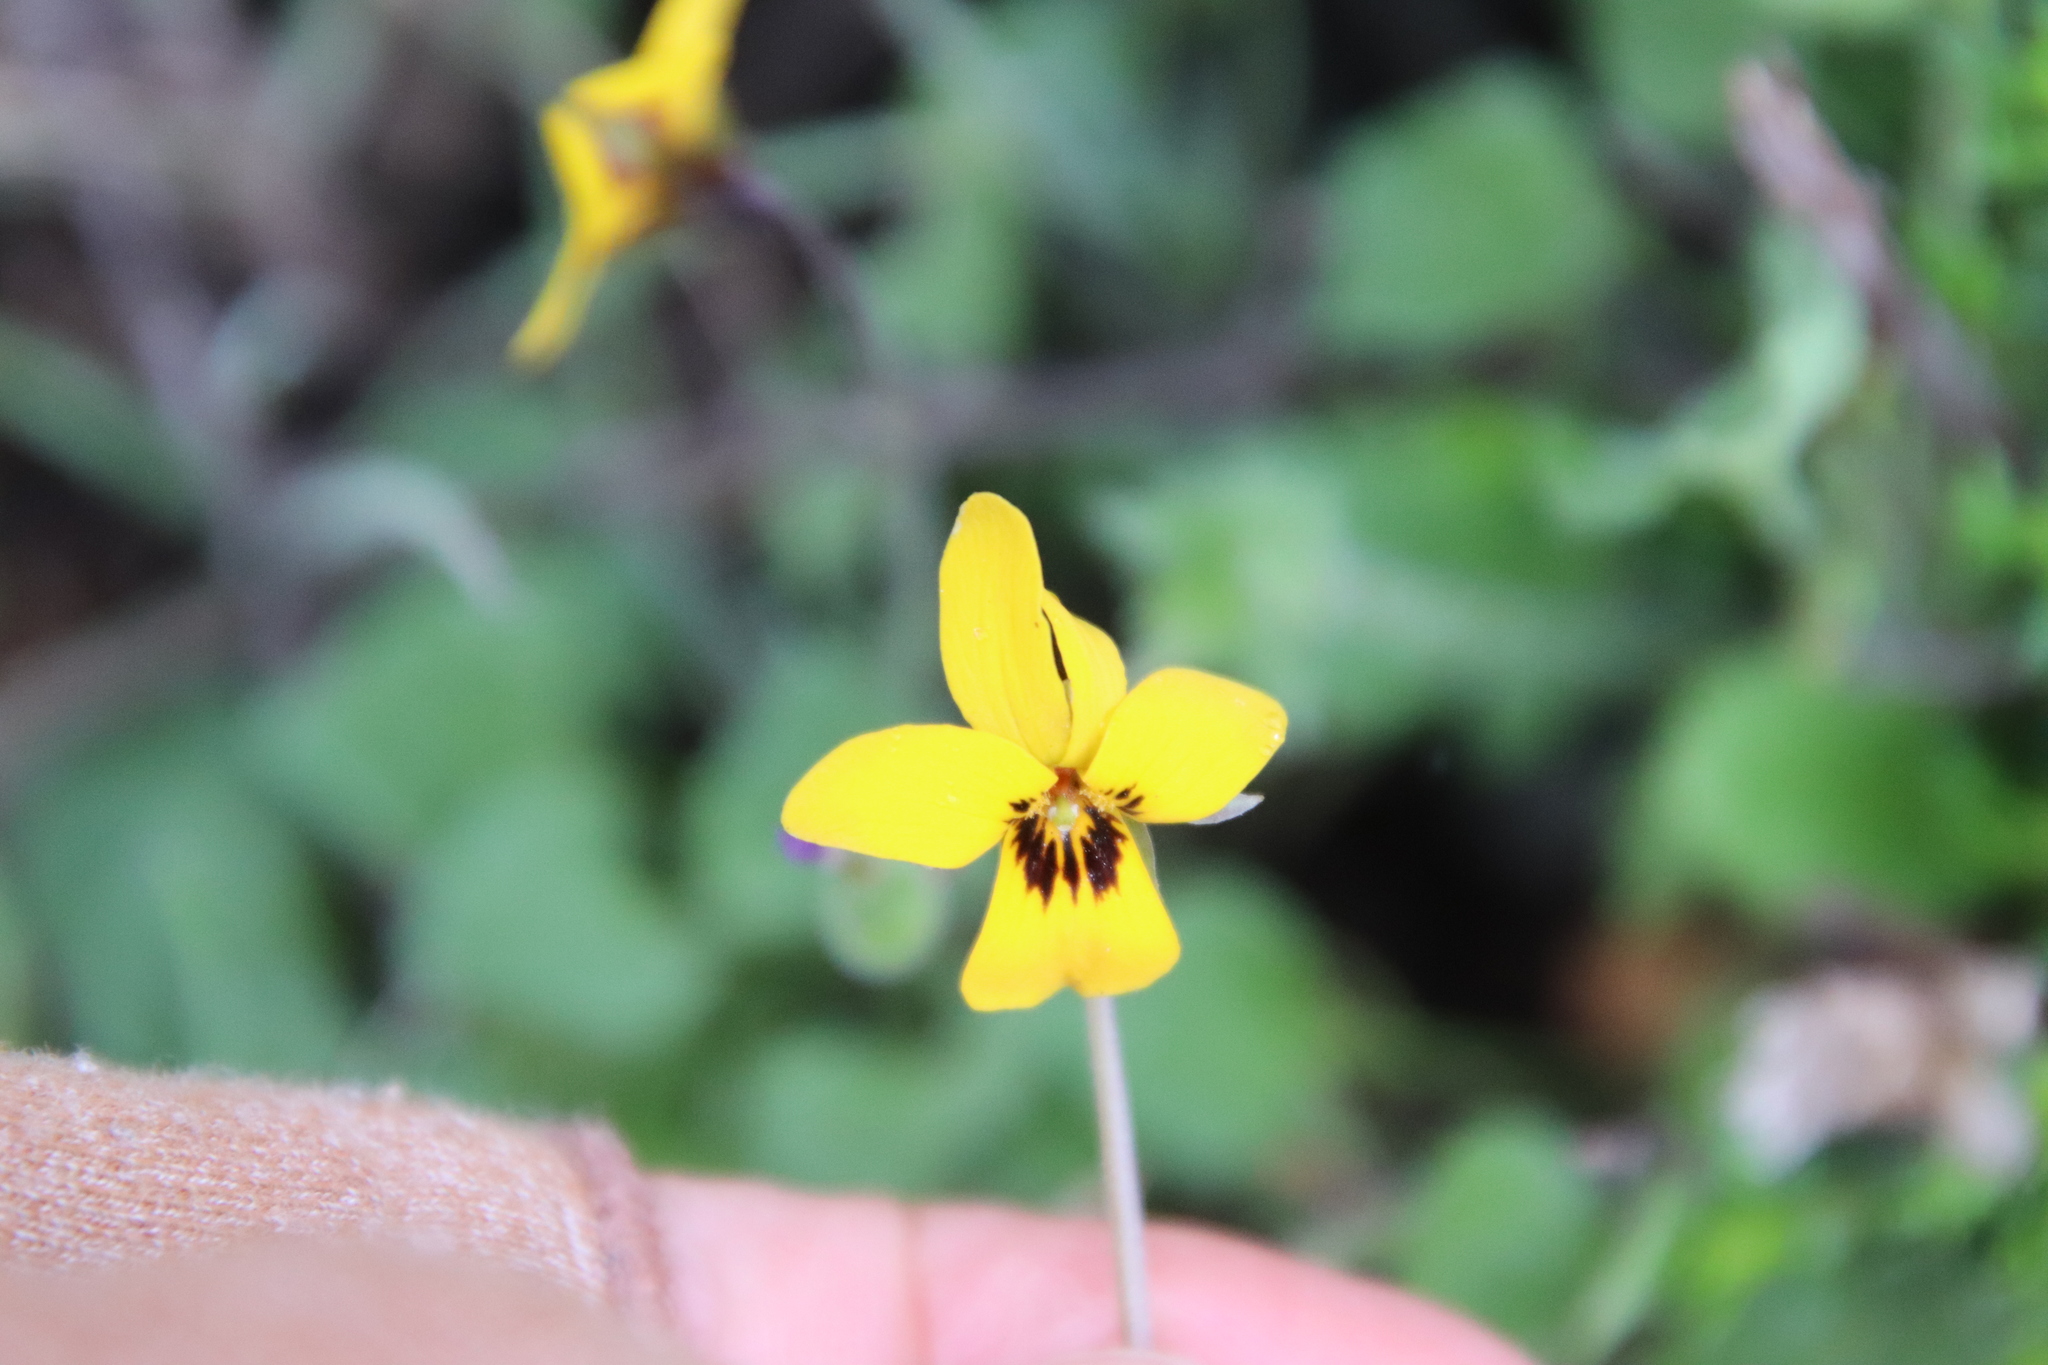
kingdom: Plantae
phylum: Tracheophyta
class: Magnoliopsida
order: Malpighiales
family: Violaceae
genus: Viola
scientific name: Viola pedunculata
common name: California golden violet
